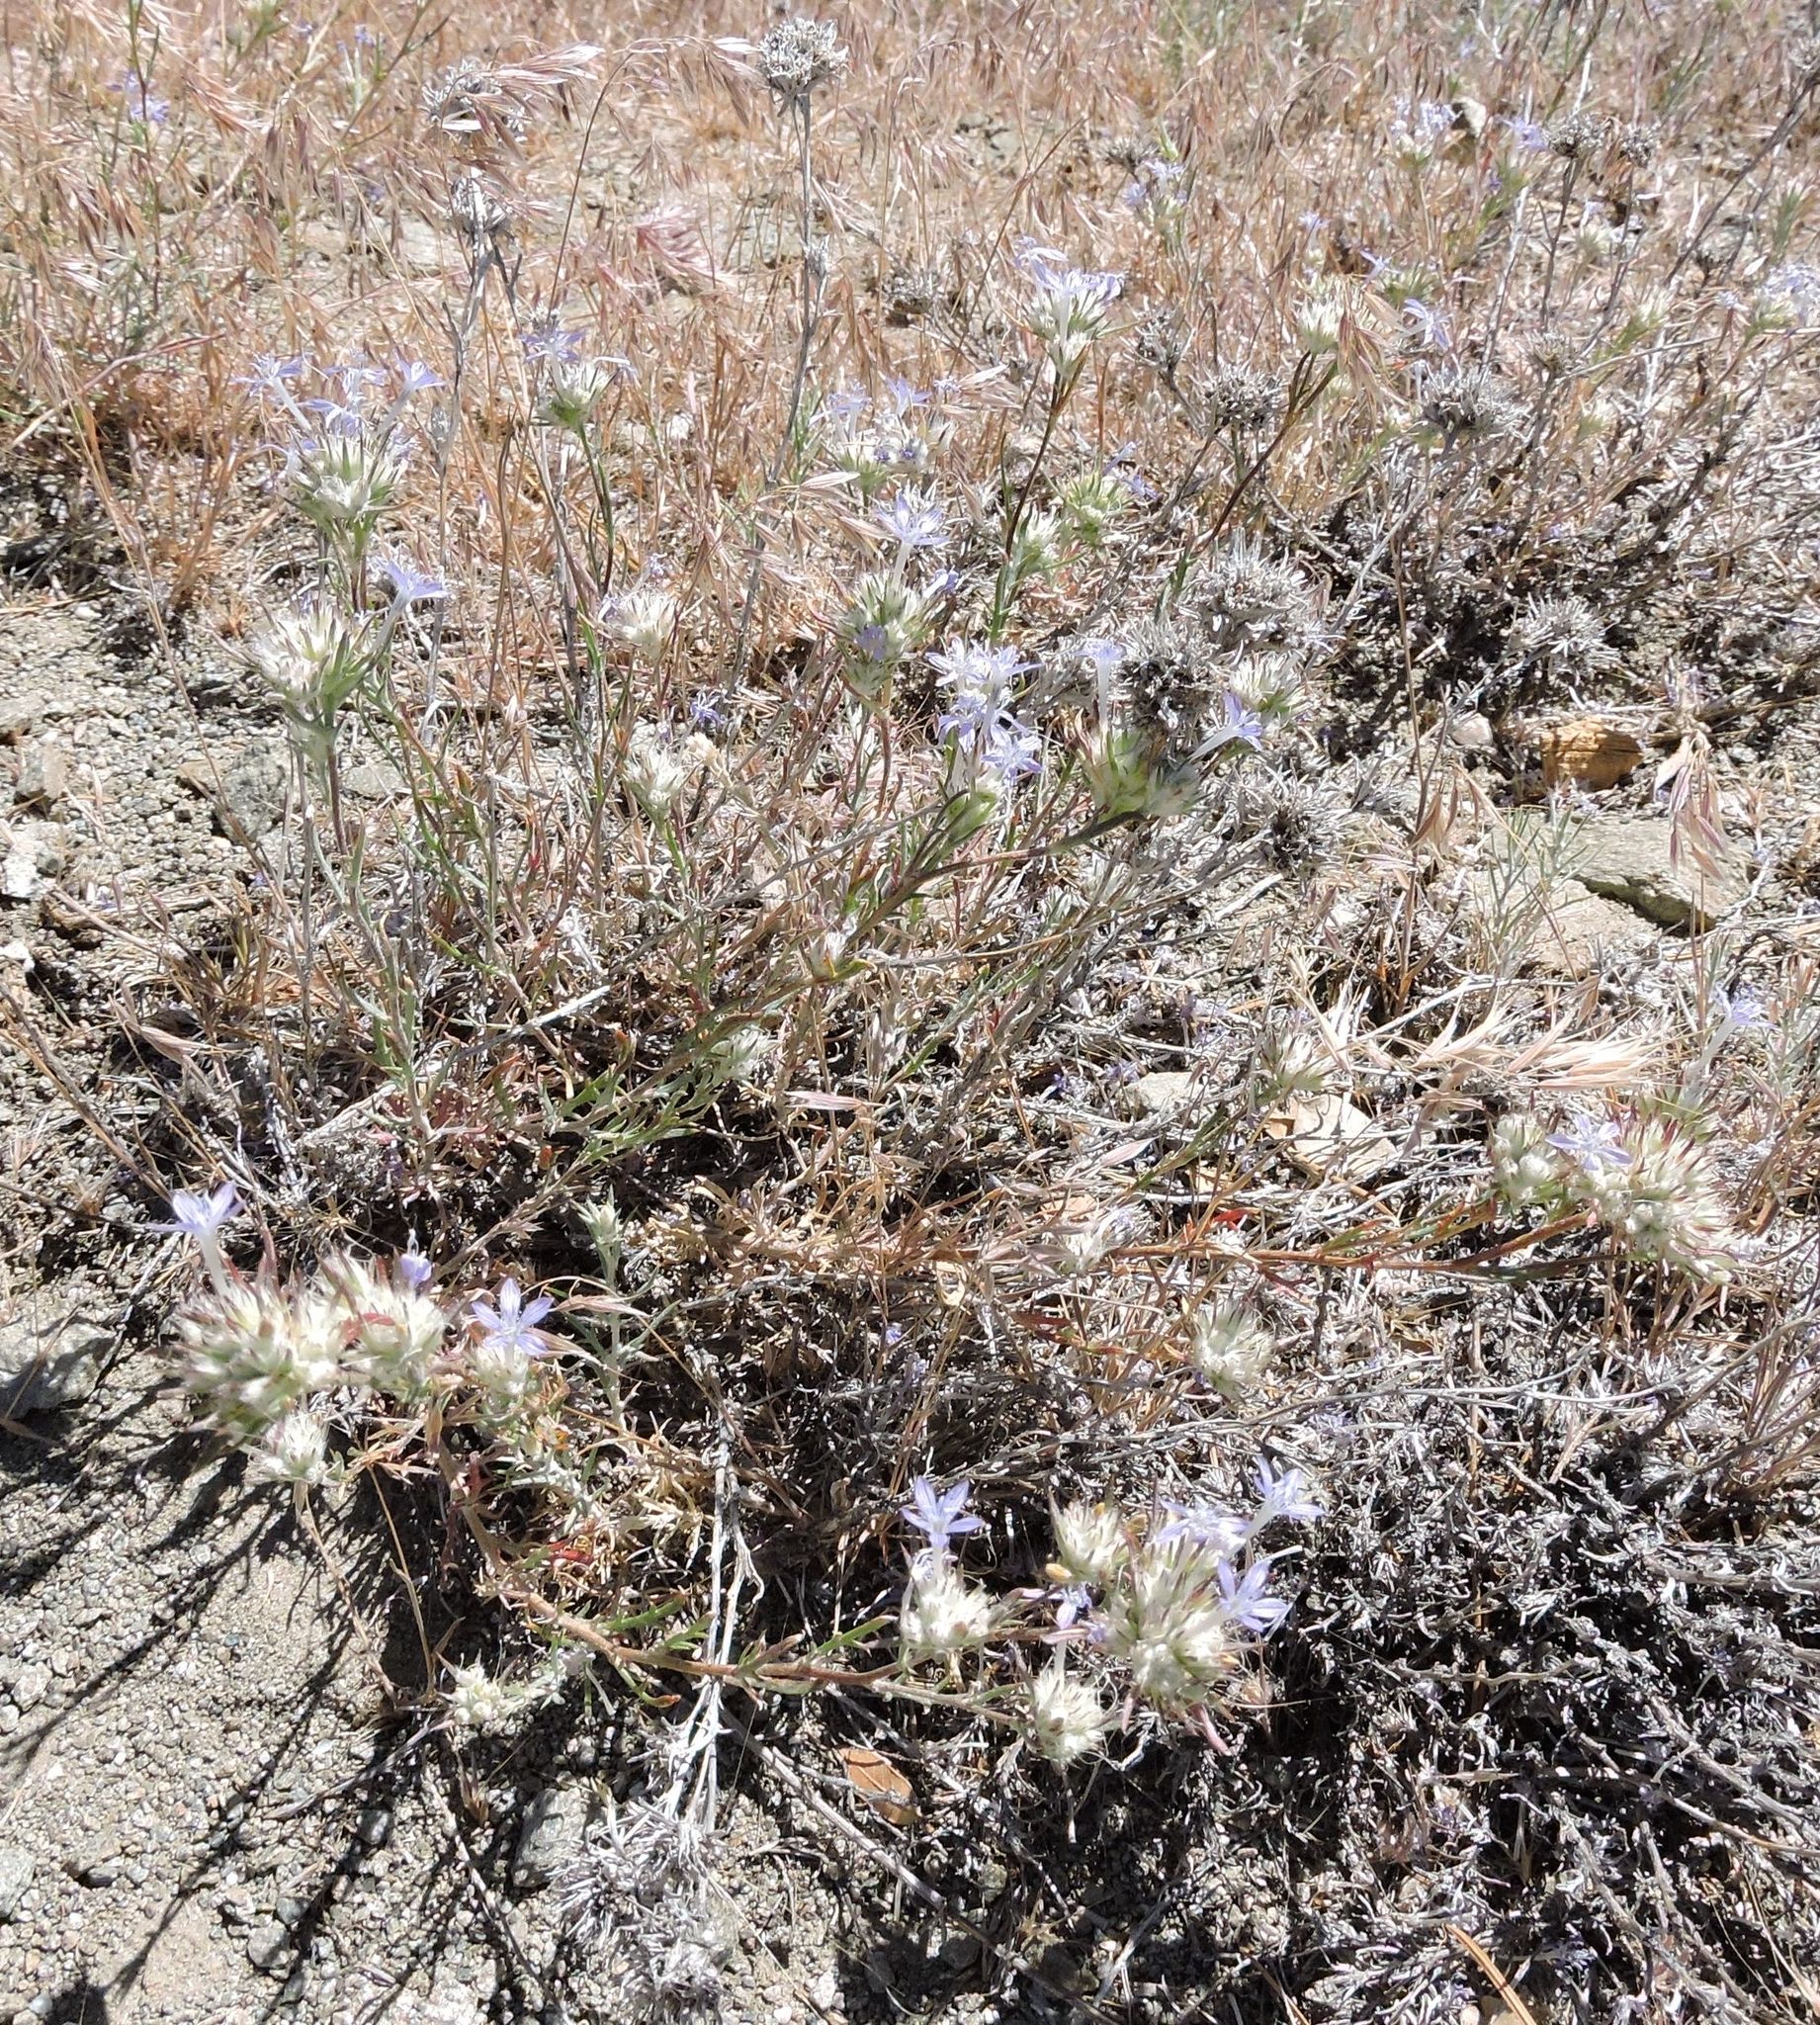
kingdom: Plantae
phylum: Tracheophyta
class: Magnoliopsida
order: Ericales
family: Polemoniaceae
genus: Eriastrum
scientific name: Eriastrum densifolium
